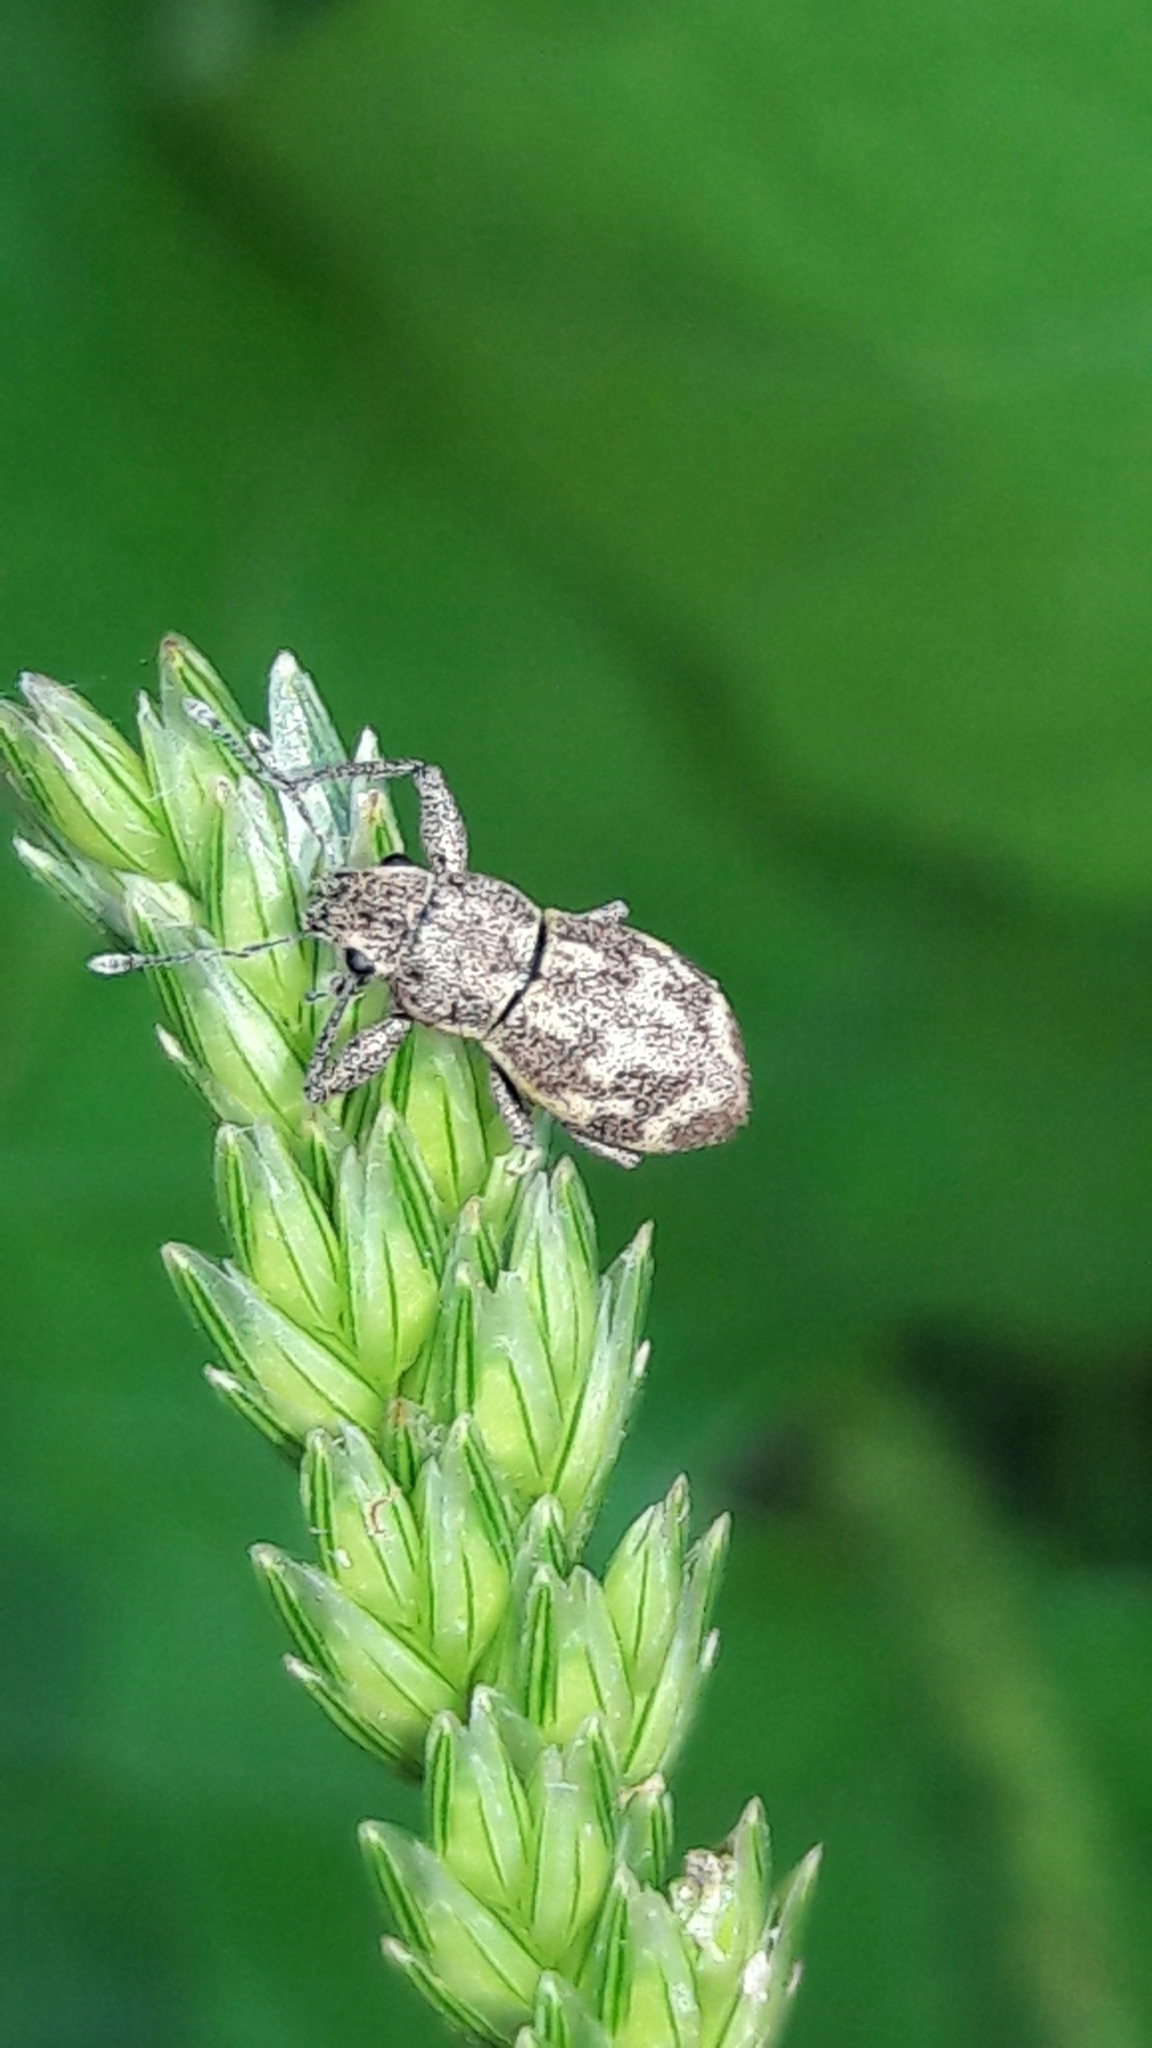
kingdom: Animalia
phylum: Arthropoda
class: Insecta
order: Coleoptera
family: Curculionidae
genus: Parapantomorus
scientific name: Parapantomorus fluctuosus
